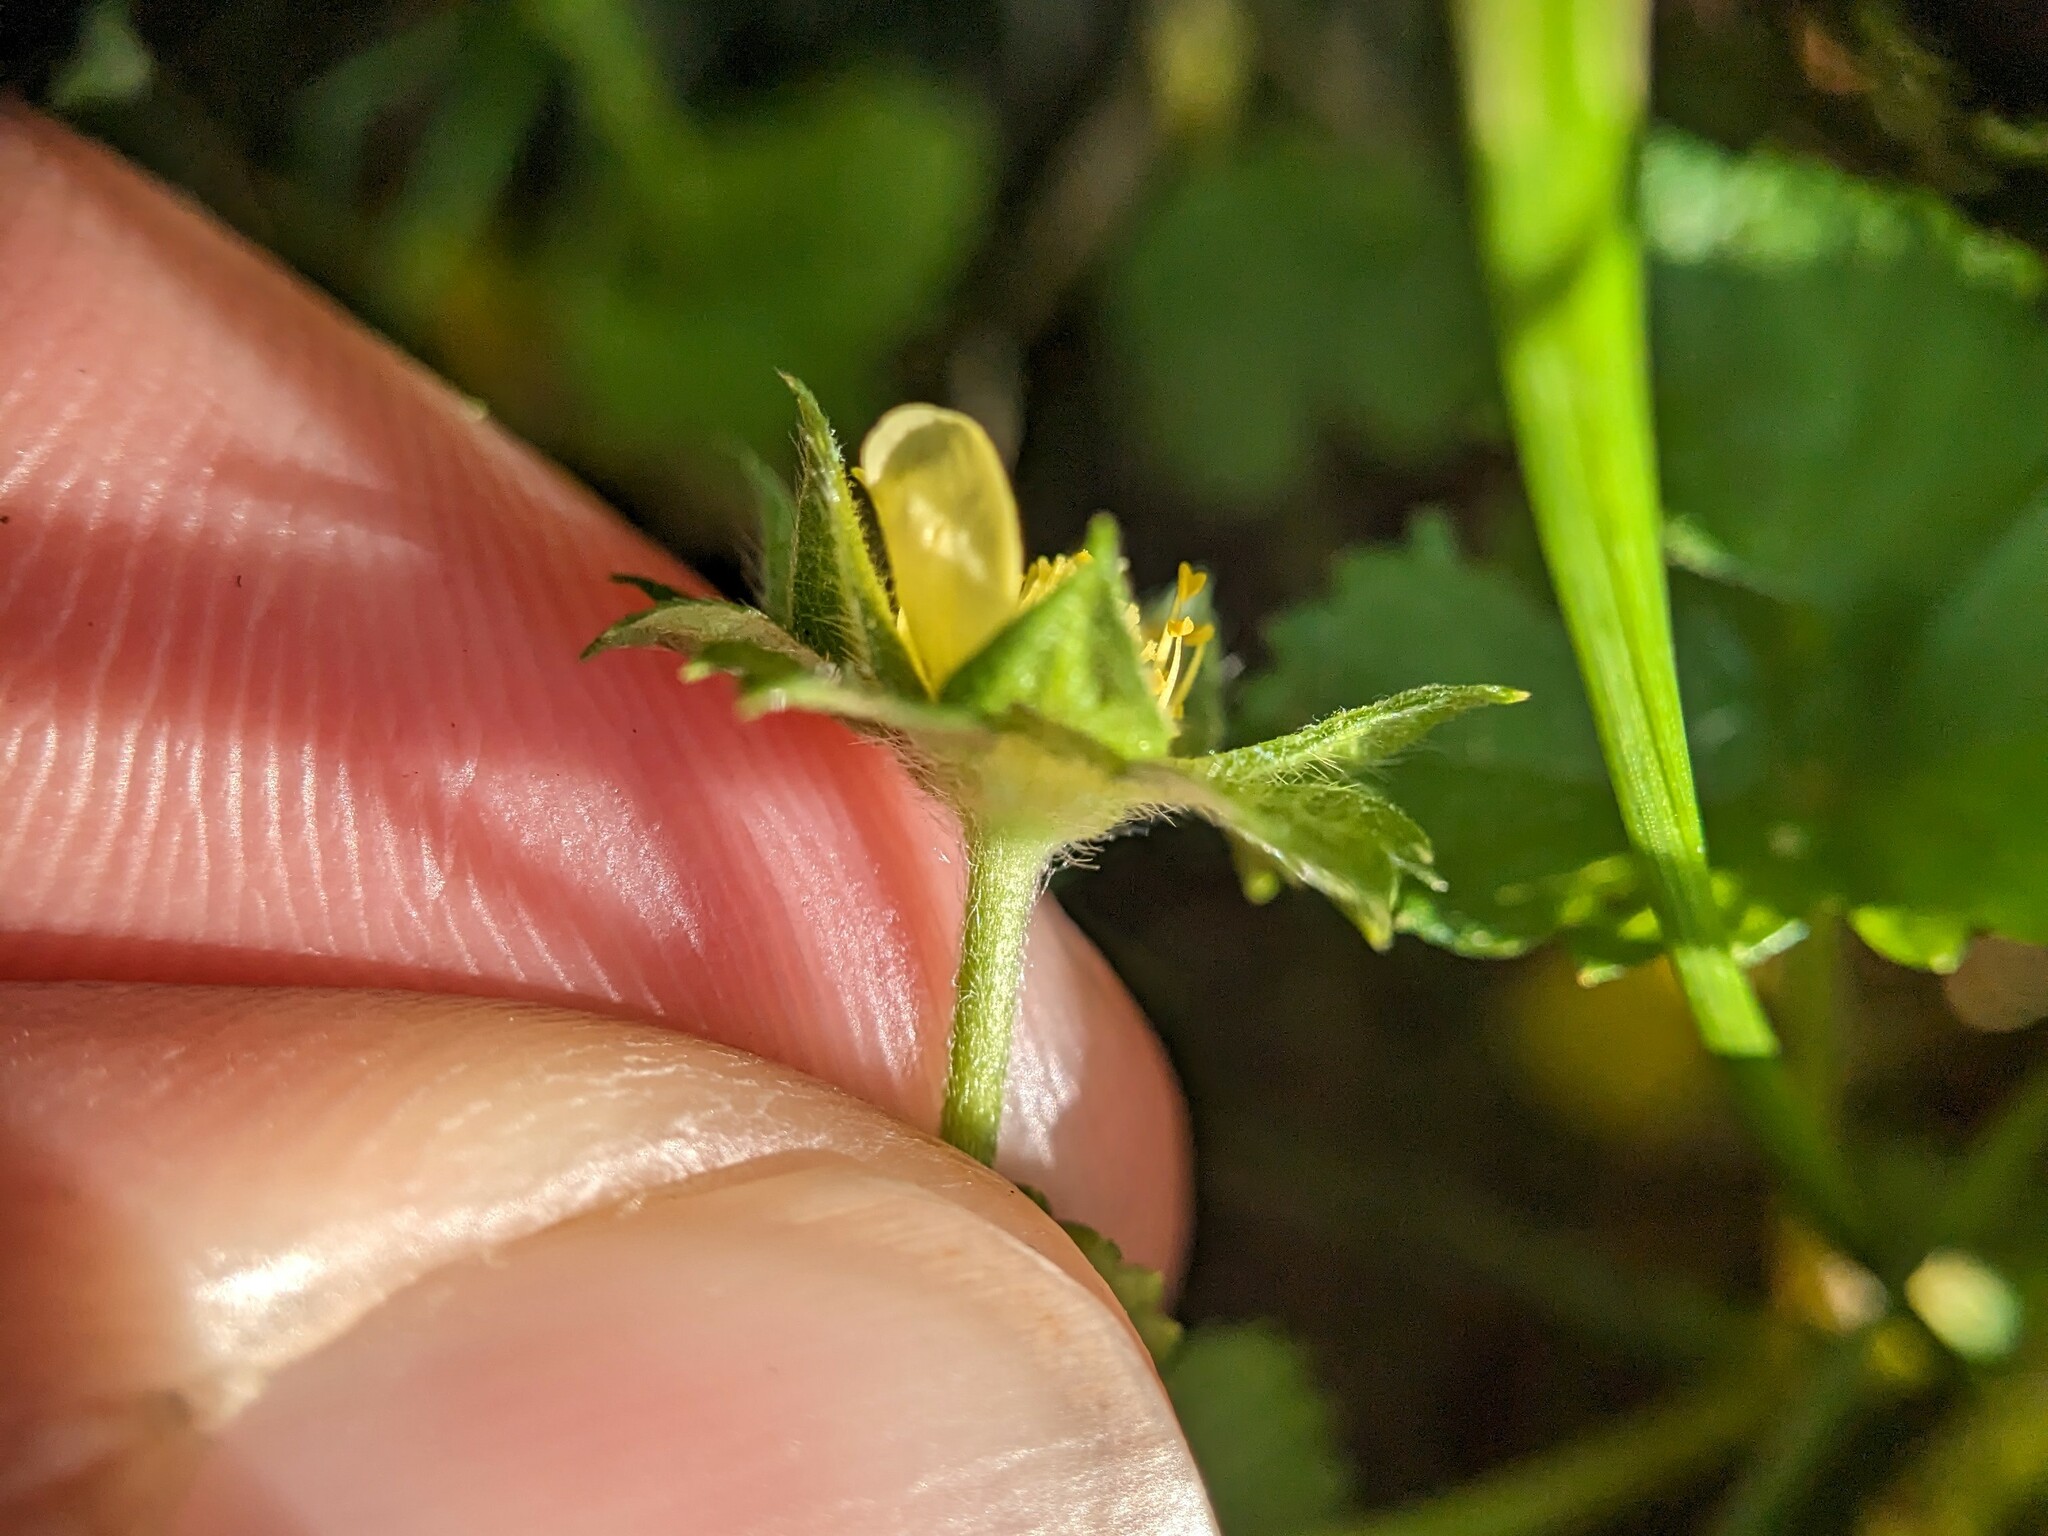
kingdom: Plantae
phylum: Tracheophyta
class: Magnoliopsida
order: Rosales
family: Rosaceae
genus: Potentilla
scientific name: Potentilla indica
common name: Yellow-flowered strawberry
